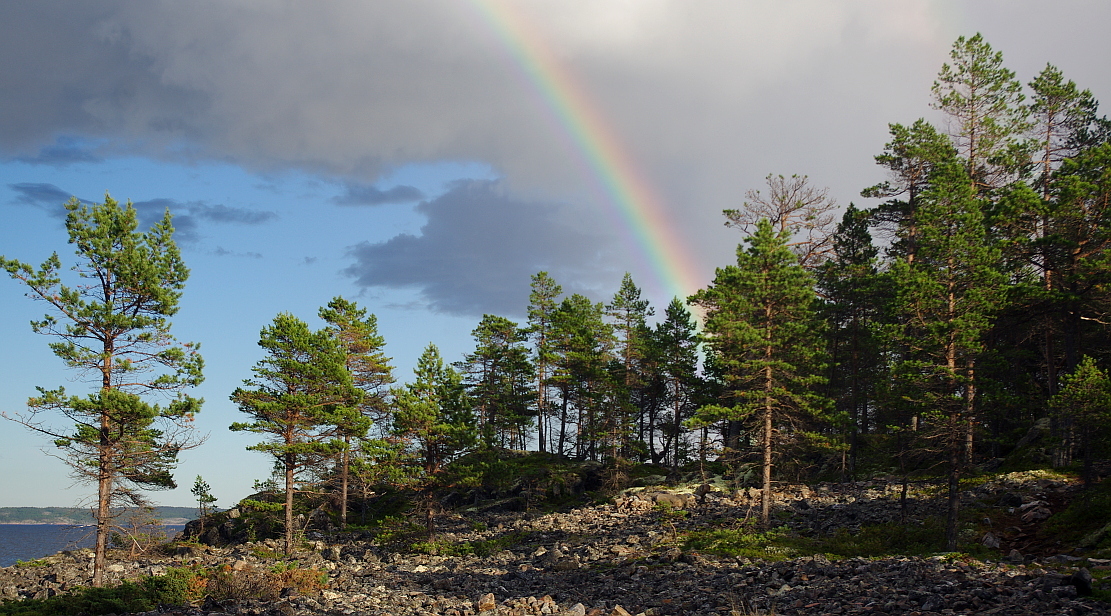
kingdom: Plantae
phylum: Tracheophyta
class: Pinopsida
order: Pinales
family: Pinaceae
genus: Pinus
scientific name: Pinus sylvestris
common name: Scots pine
